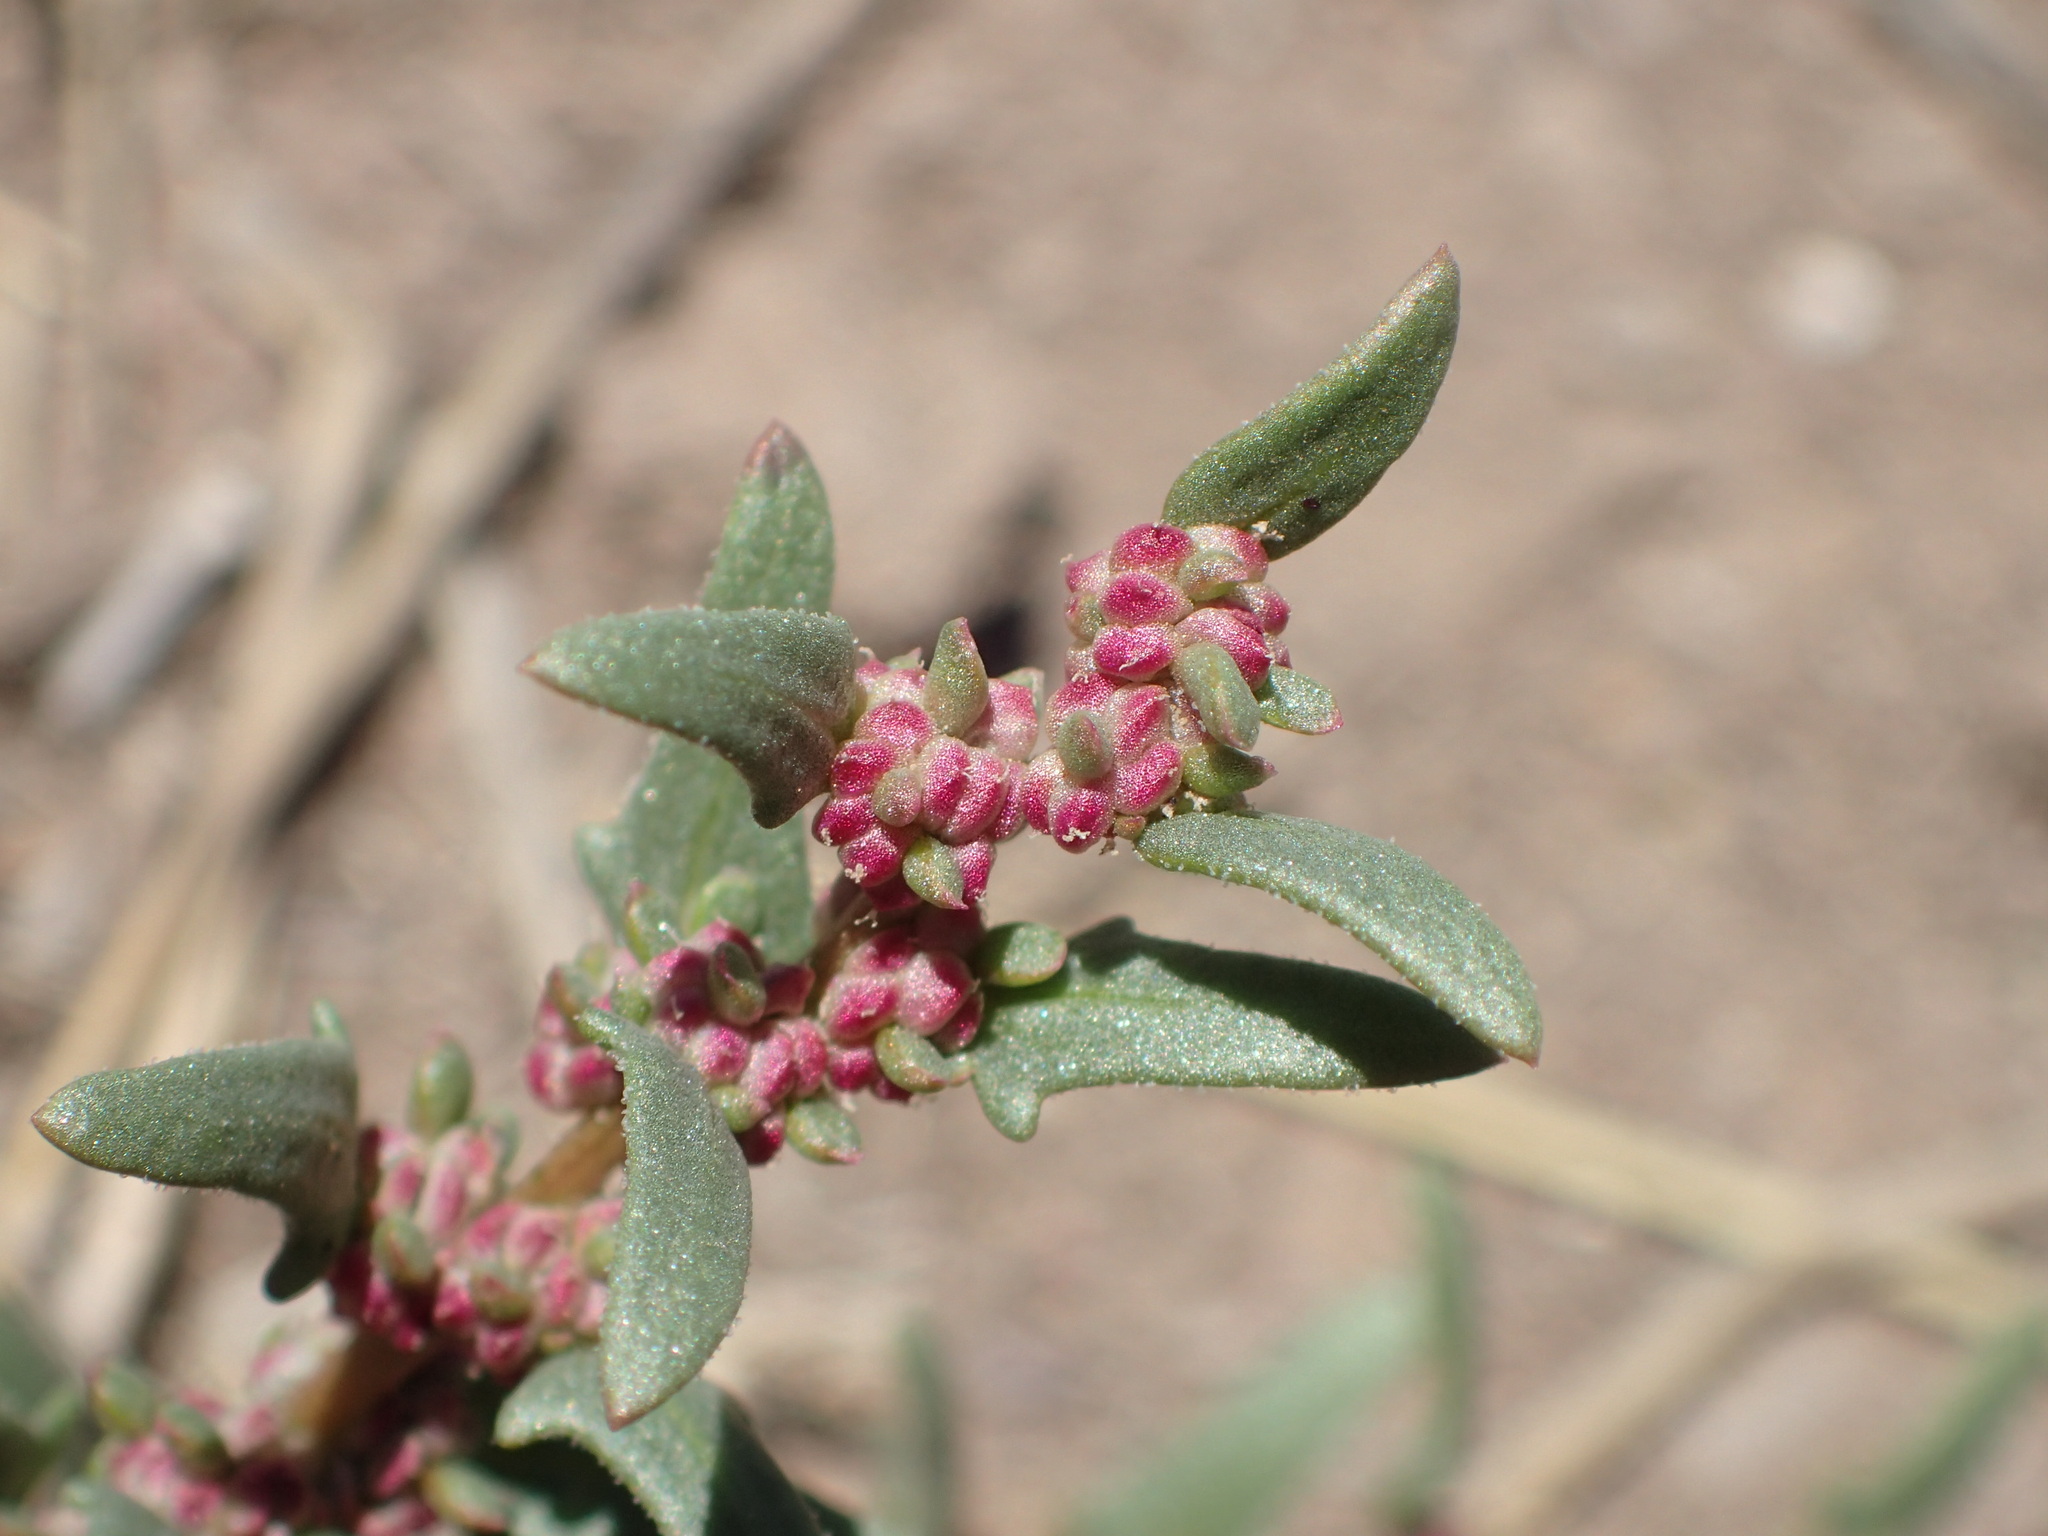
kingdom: Plantae
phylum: Tracheophyta
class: Magnoliopsida
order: Caryophyllales
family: Amaranthaceae
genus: Blitum
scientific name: Blitum nuttallianum
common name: Poverty-weed
